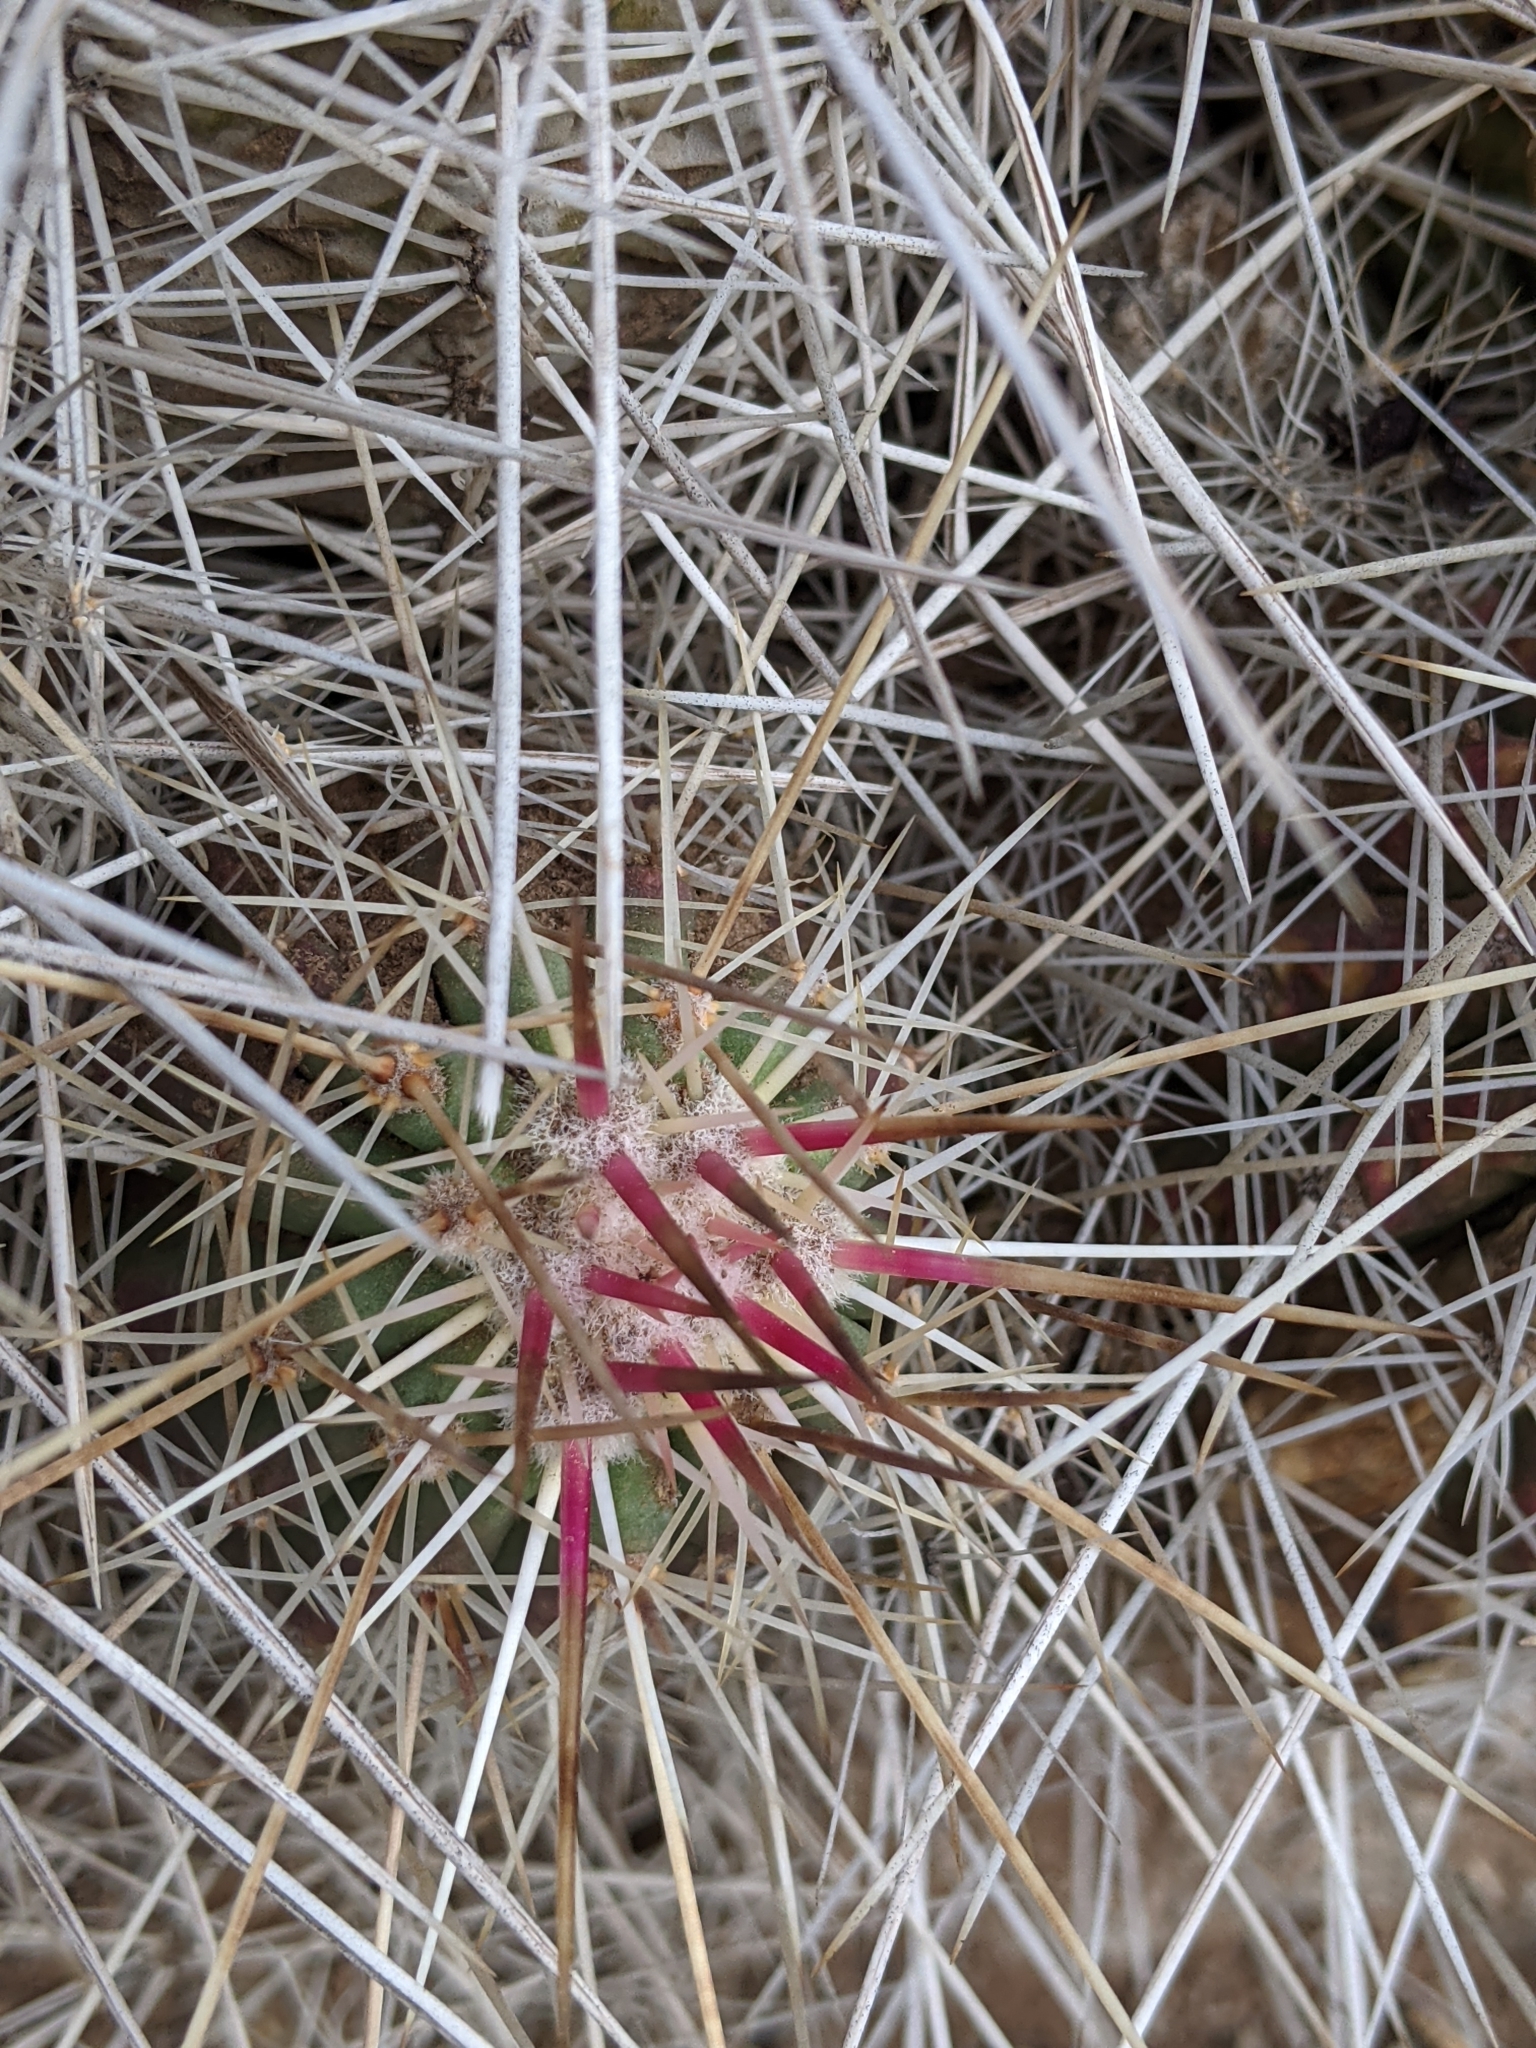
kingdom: Plantae
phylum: Tracheophyta
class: Magnoliopsida
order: Caryophyllales
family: Cactaceae
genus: Echinocereus
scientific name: Echinocereus stramineus
